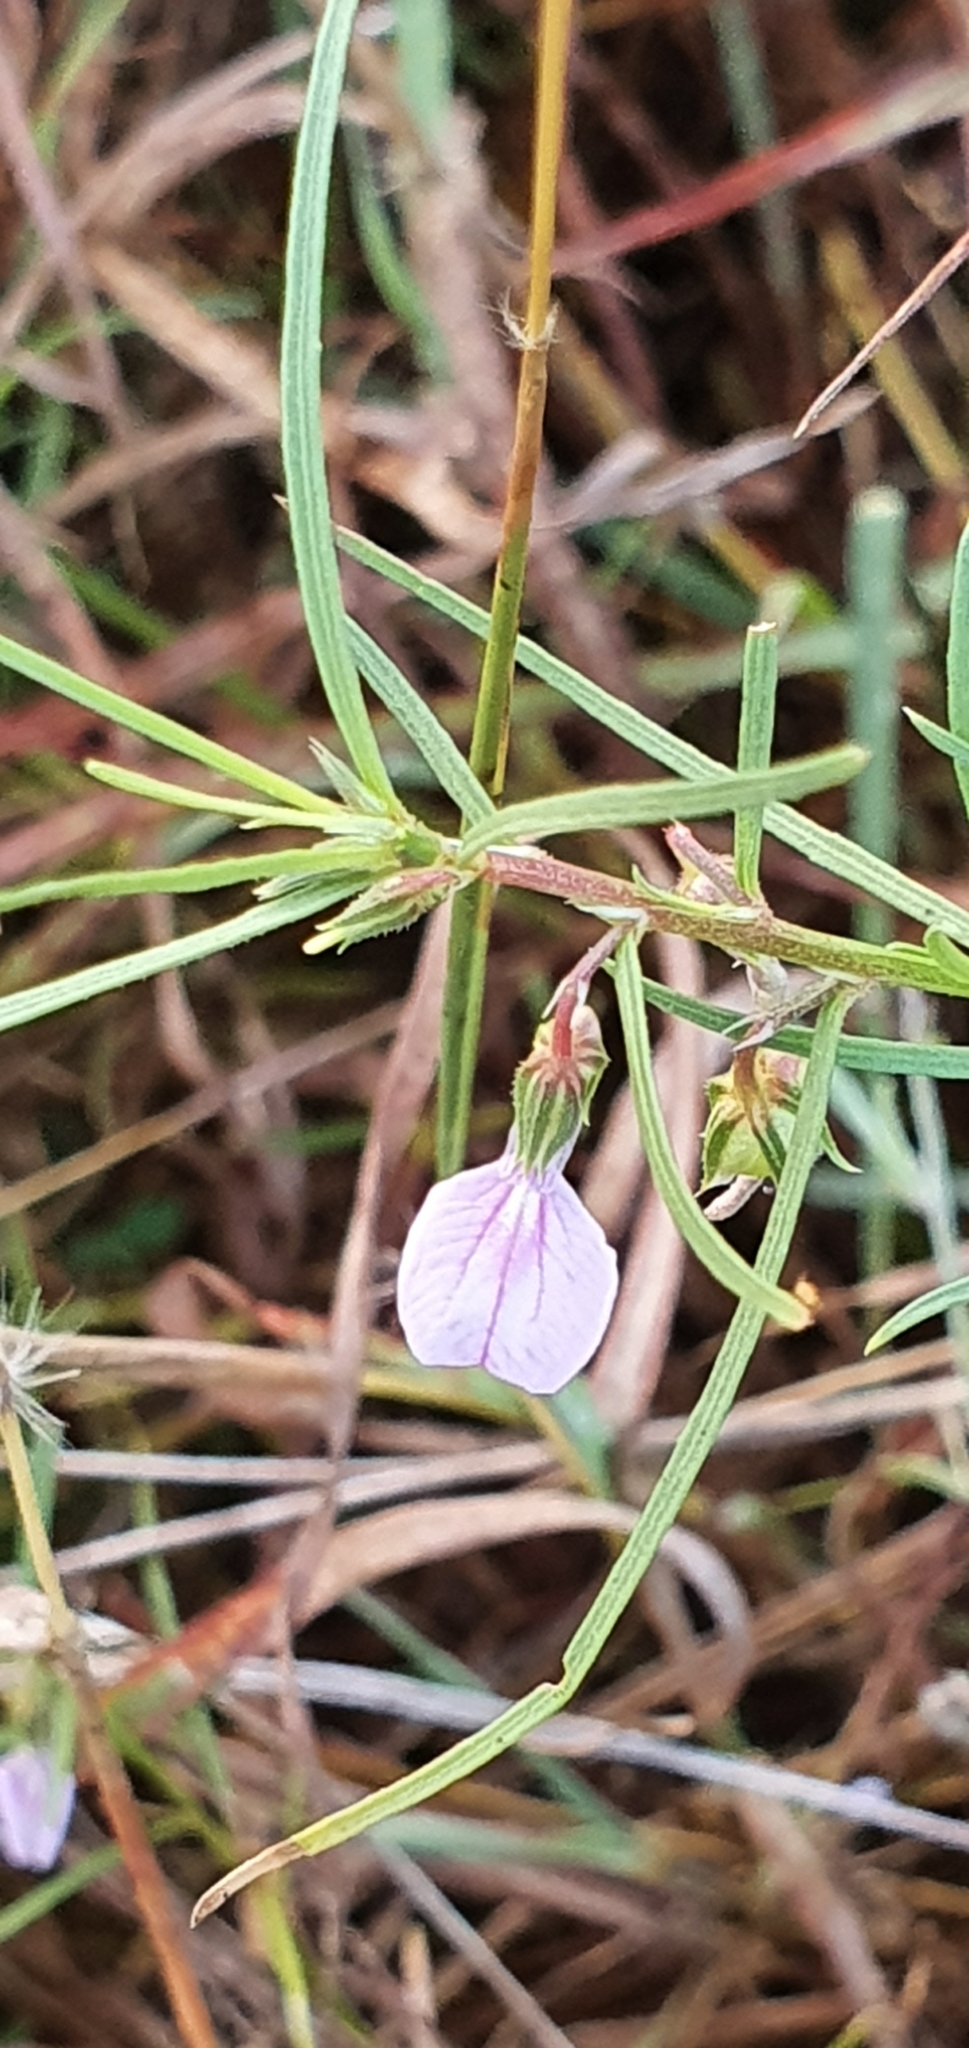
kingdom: Plantae
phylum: Tracheophyta
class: Magnoliopsida
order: Malpighiales
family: Violaceae
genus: Pigea
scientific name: Pigea enneasperma
